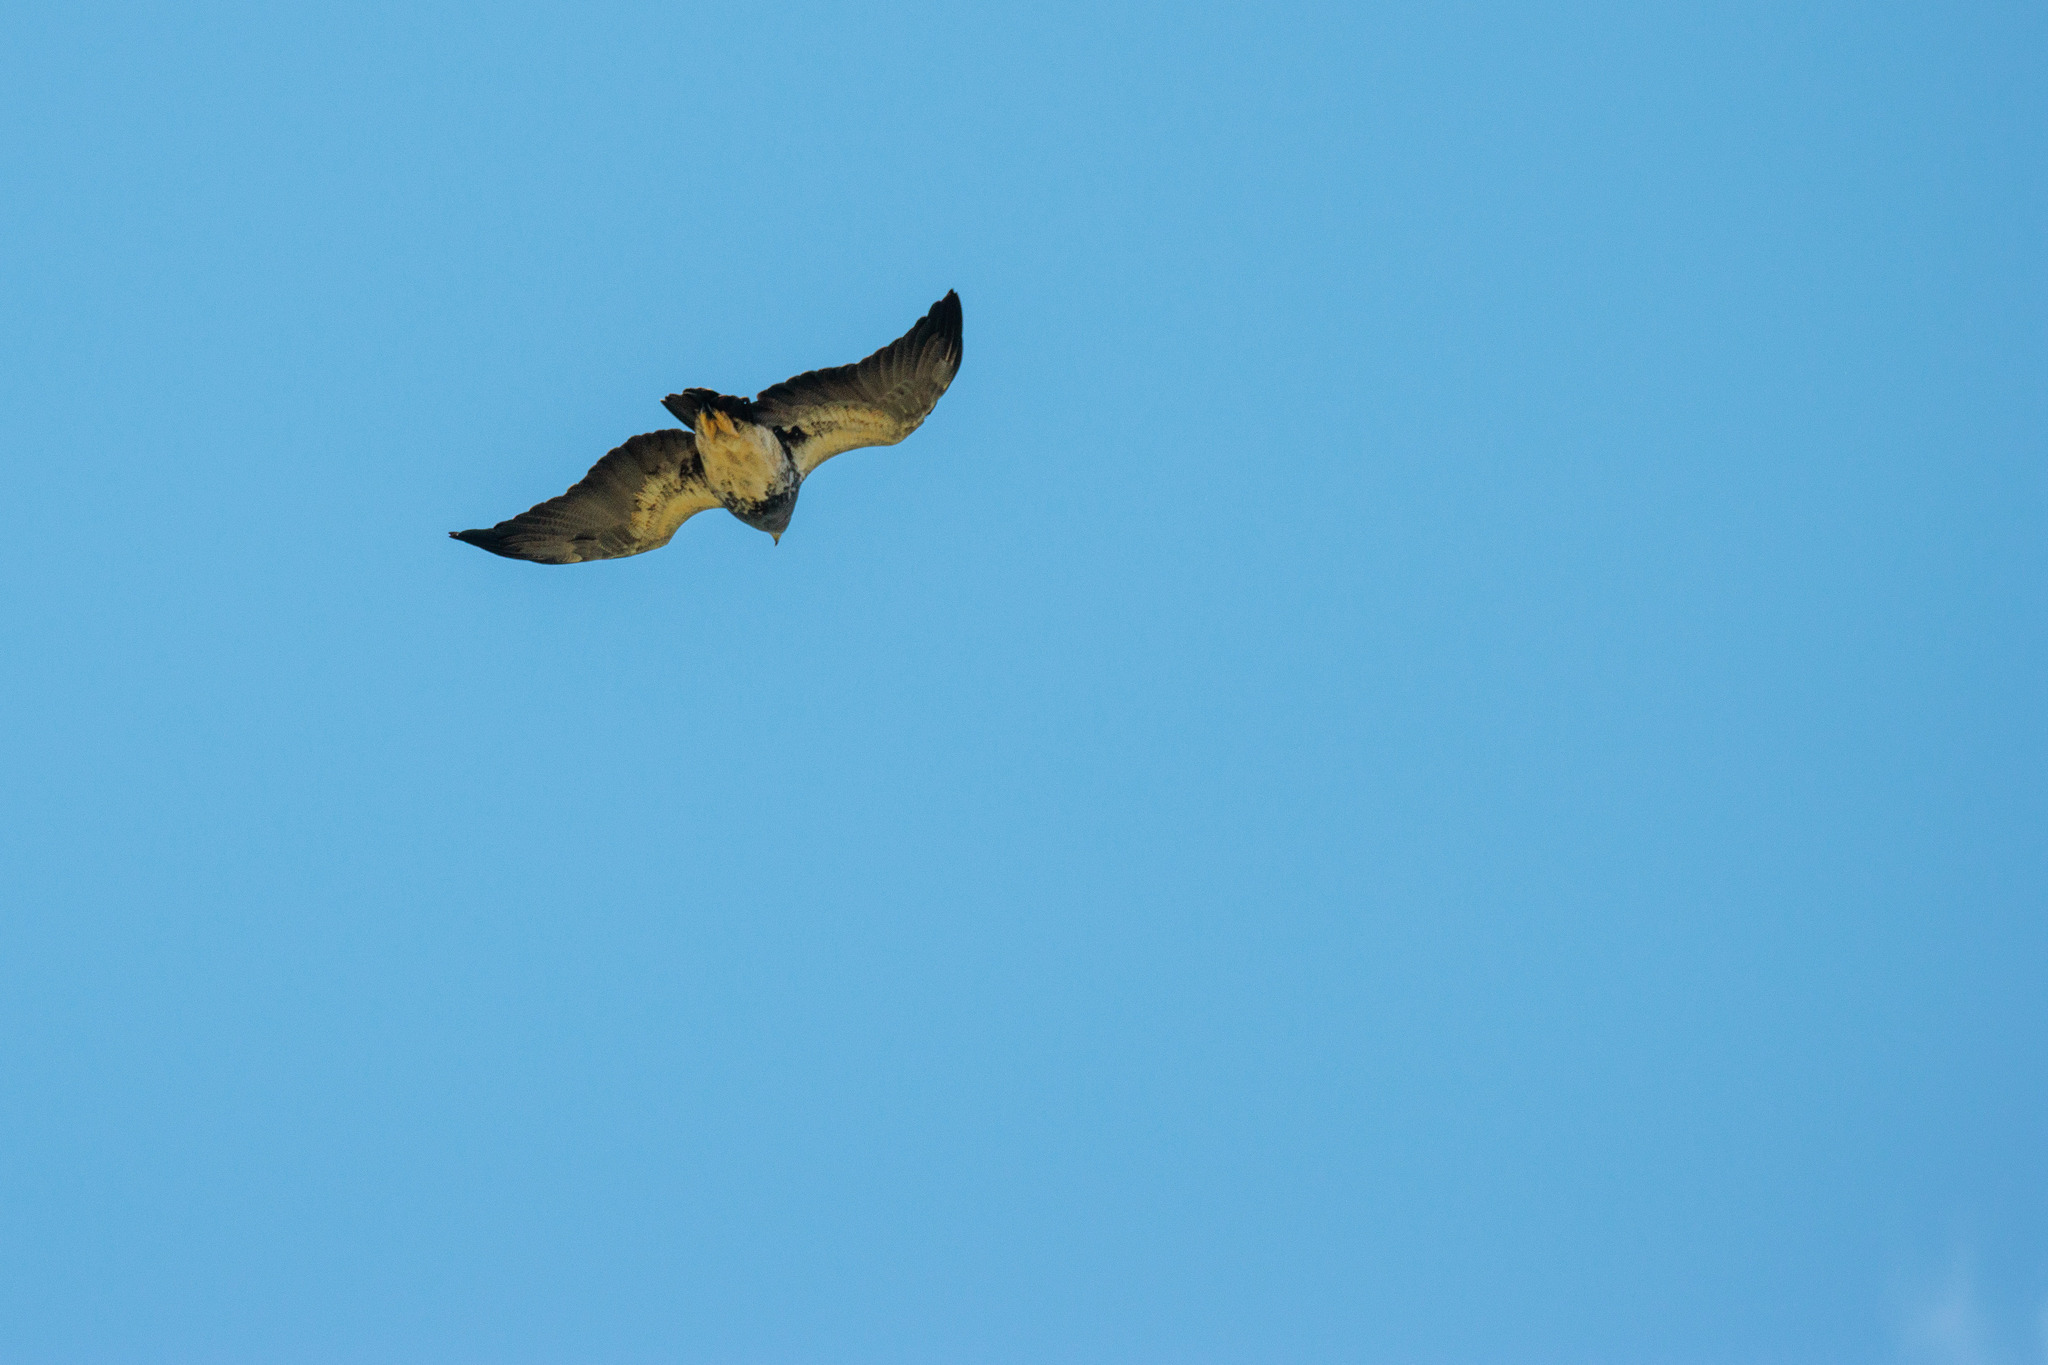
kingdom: Animalia
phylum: Chordata
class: Aves
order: Accipitriformes
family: Accipitridae
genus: Geranoaetus
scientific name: Geranoaetus melanoleucus
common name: Black-chested buzzard-eagle
